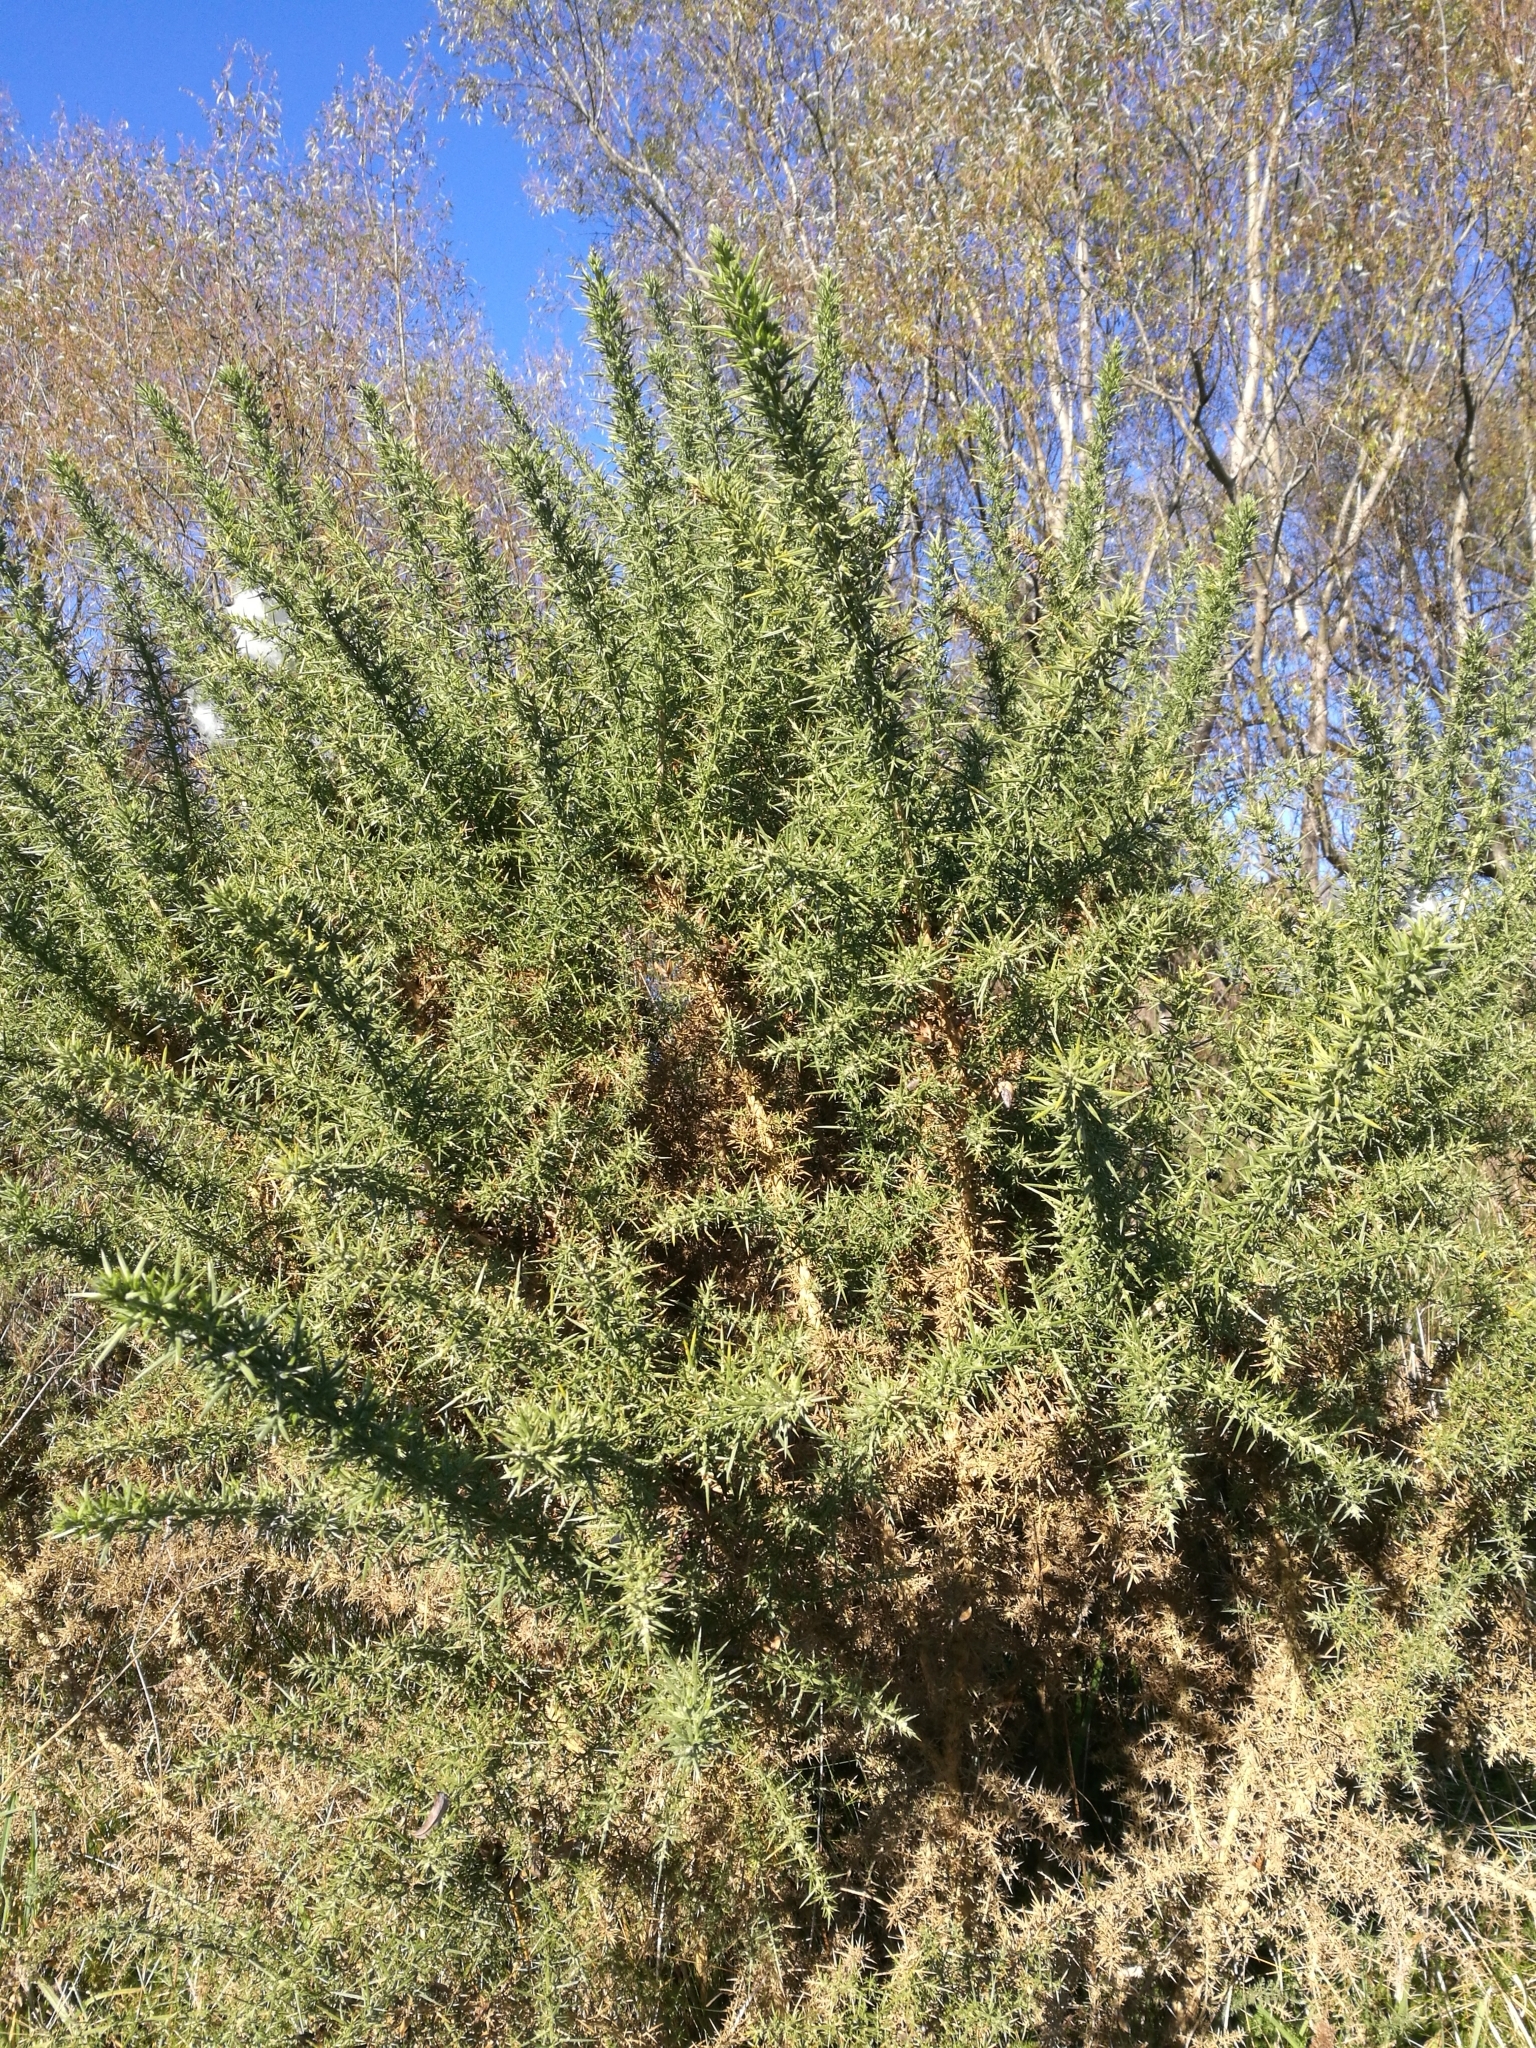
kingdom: Plantae
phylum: Tracheophyta
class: Magnoliopsida
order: Fabales
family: Fabaceae
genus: Ulex
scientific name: Ulex europaeus
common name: Common gorse
